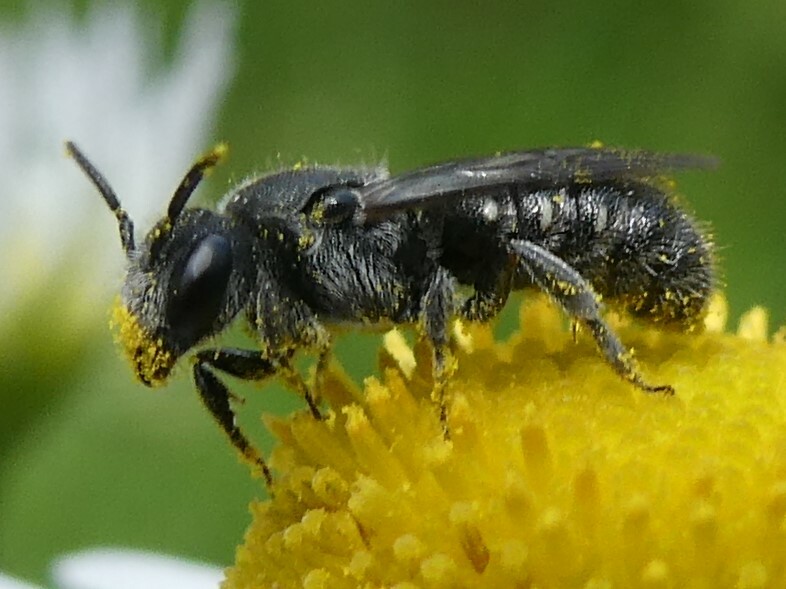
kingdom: Animalia
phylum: Arthropoda
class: Insecta
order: Hymenoptera
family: Megachilidae
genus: Stelis
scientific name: Stelis coarctatus
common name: Constrained cuckoo carder bee
